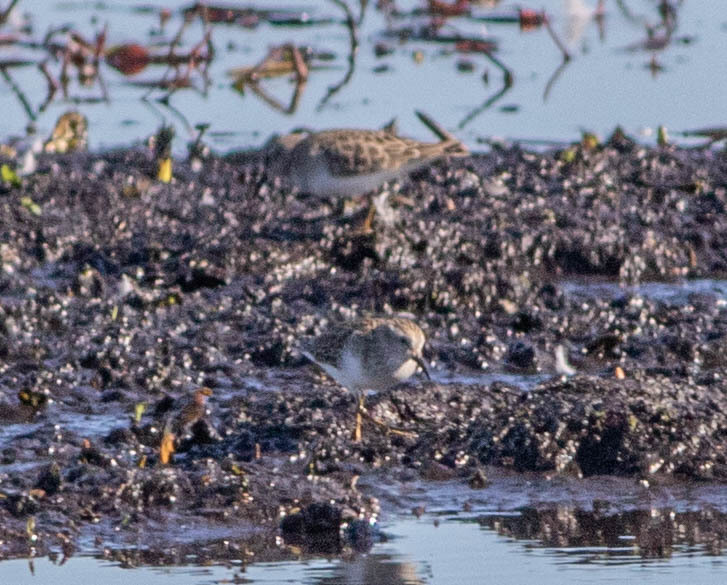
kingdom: Animalia
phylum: Chordata
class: Aves
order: Charadriiformes
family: Scolopacidae
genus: Calidris
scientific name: Calidris minutilla
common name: Least sandpiper
